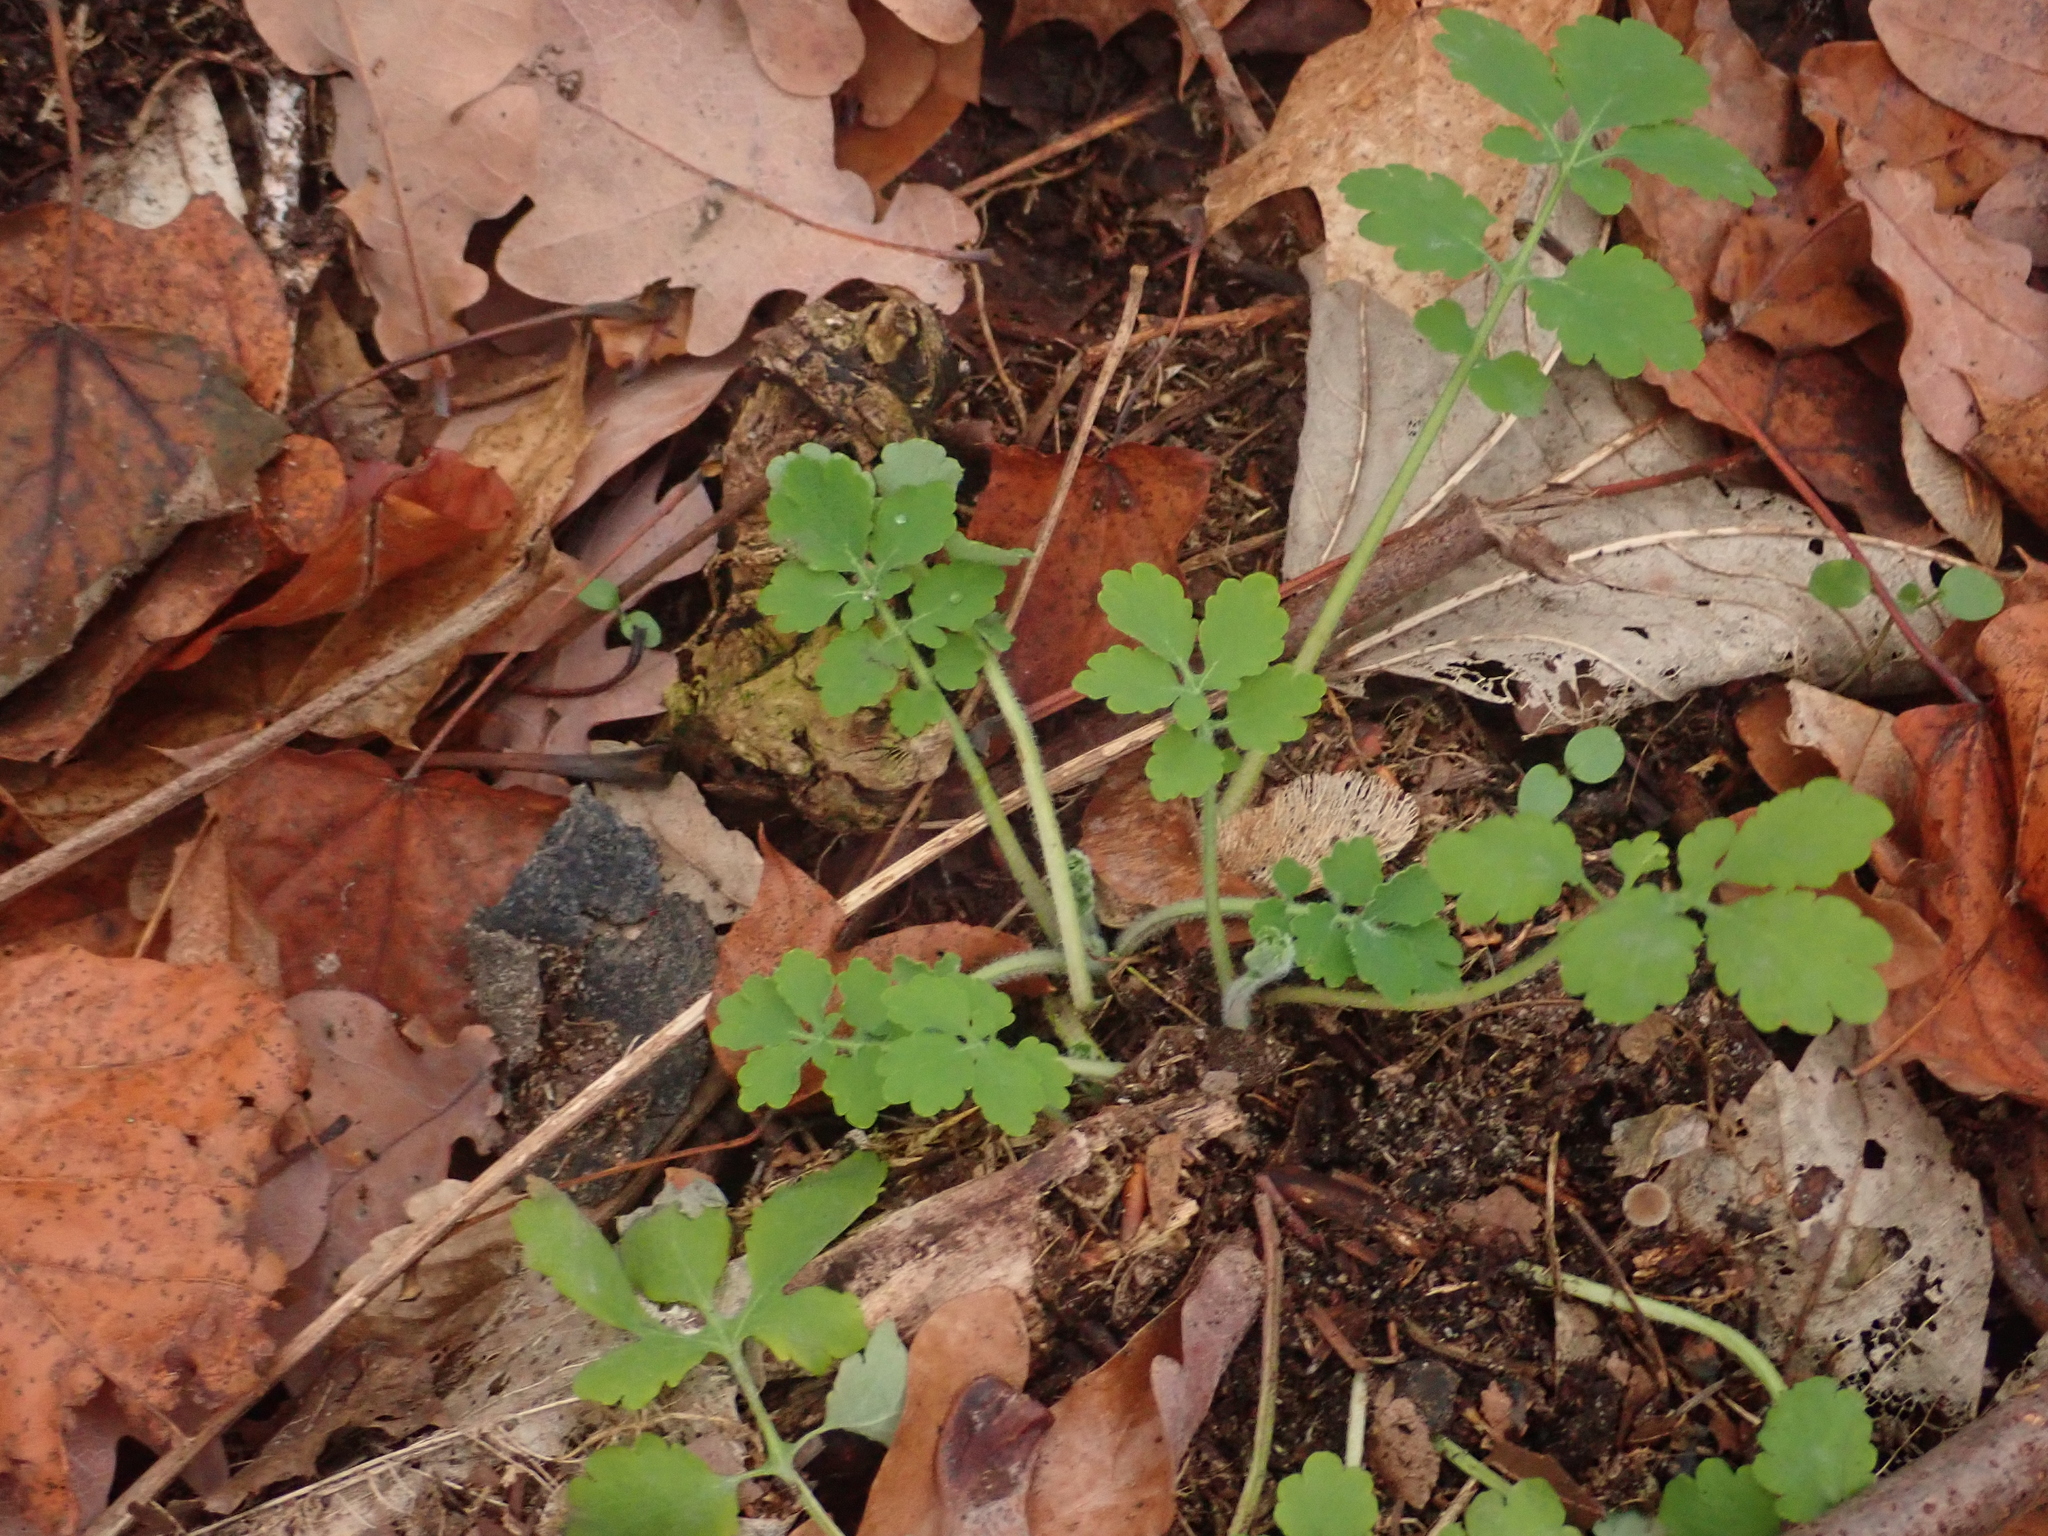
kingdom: Plantae
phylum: Tracheophyta
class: Magnoliopsida
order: Ranunculales
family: Papaveraceae
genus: Chelidonium
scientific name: Chelidonium majus
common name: Greater celandine
